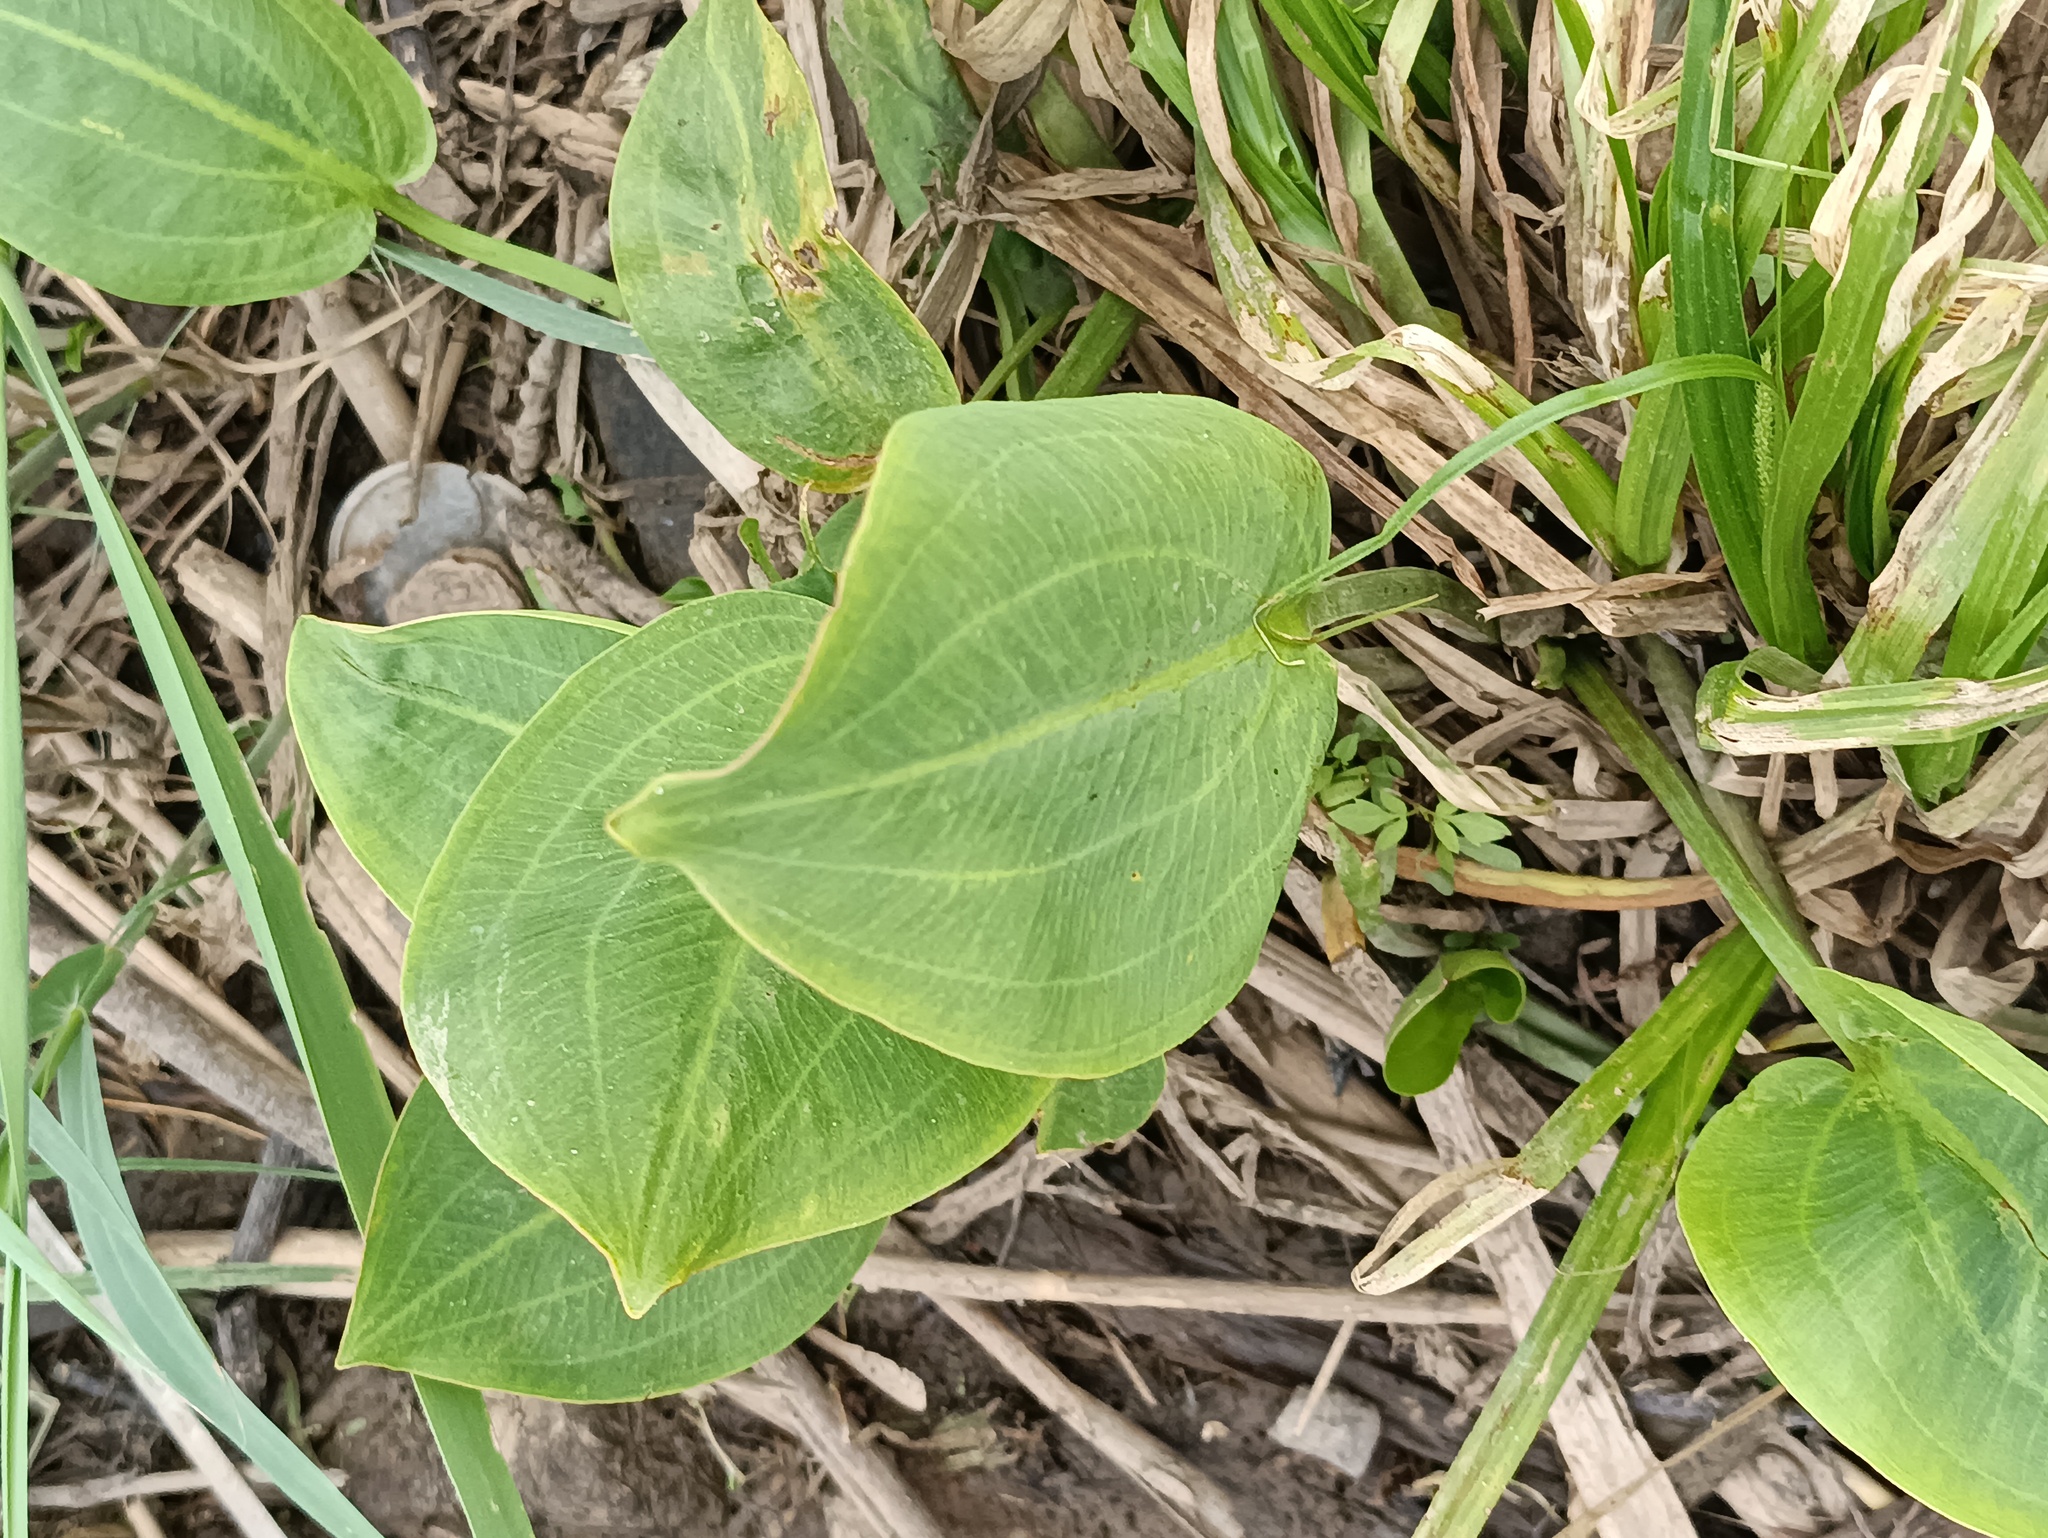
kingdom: Plantae
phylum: Tracheophyta
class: Liliopsida
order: Alismatales
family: Alismataceae
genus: Alisma
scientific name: Alisma plantago-aquatica
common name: Water-plantain
